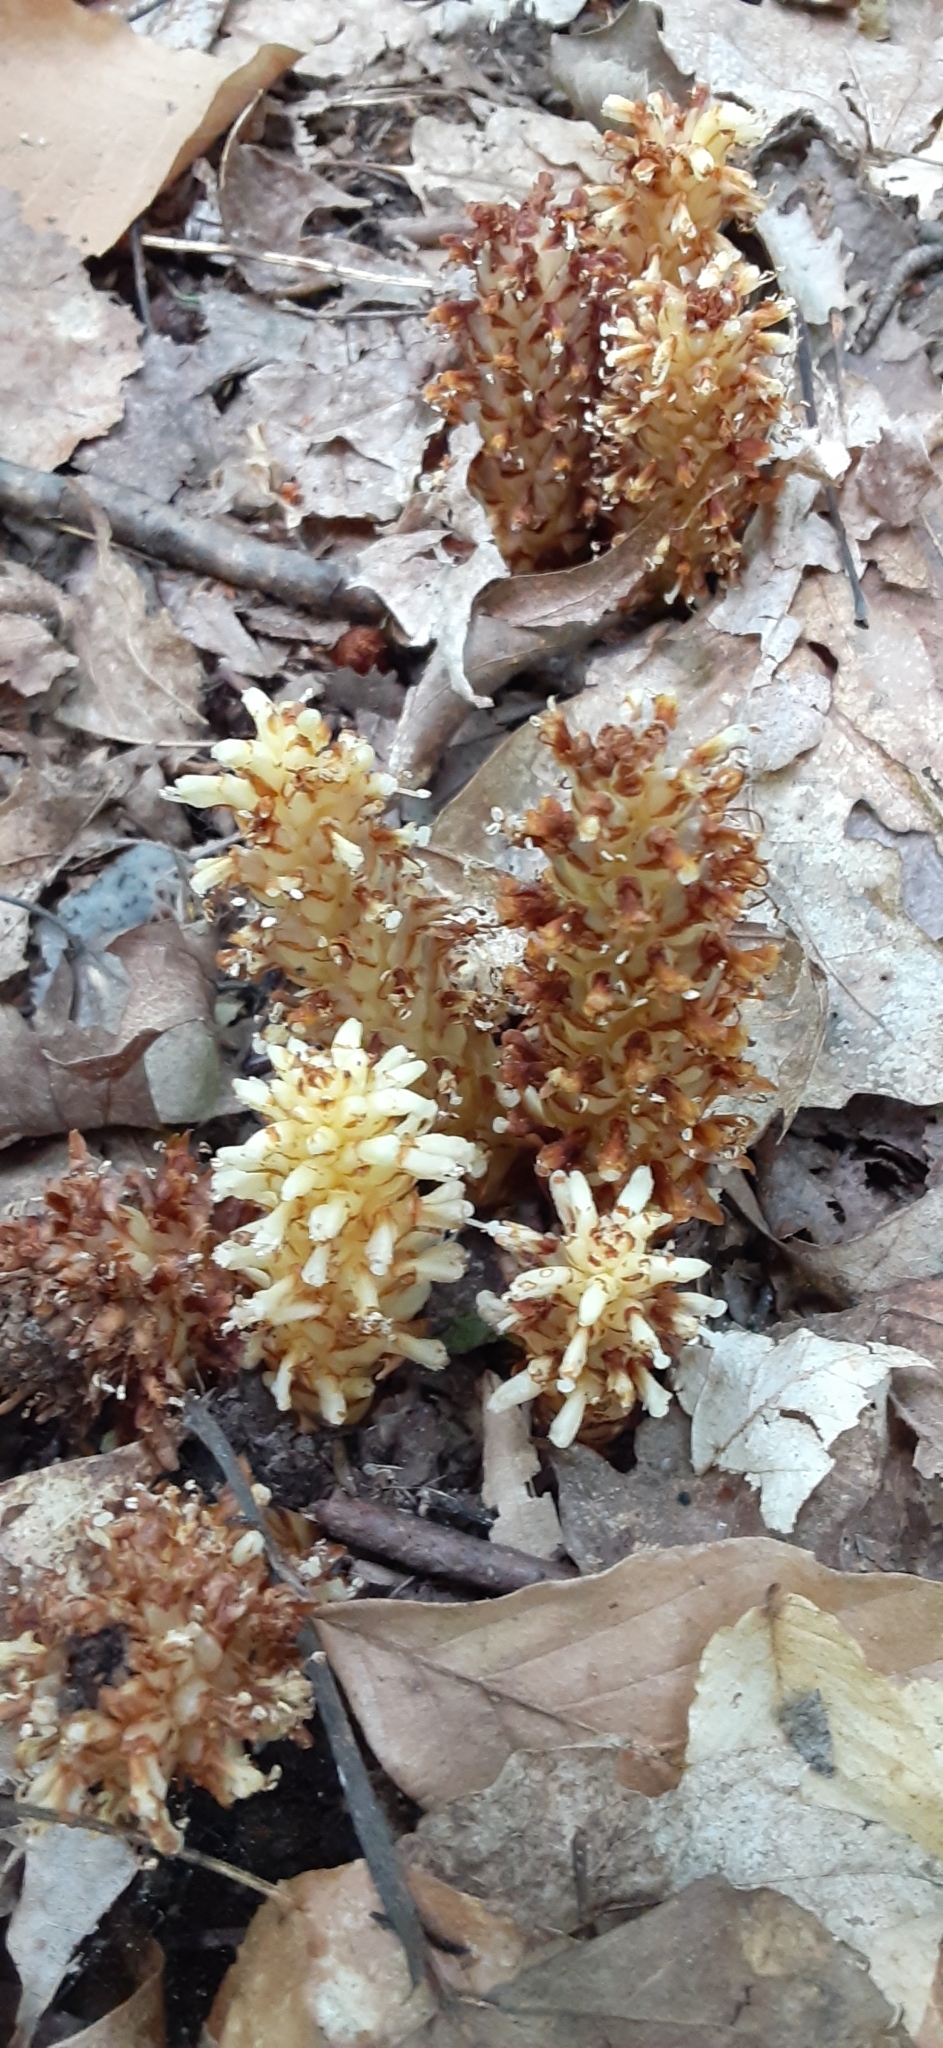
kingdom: Plantae
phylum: Tracheophyta
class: Magnoliopsida
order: Lamiales
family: Orobanchaceae
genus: Conopholis
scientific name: Conopholis americana
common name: American cancer-root
